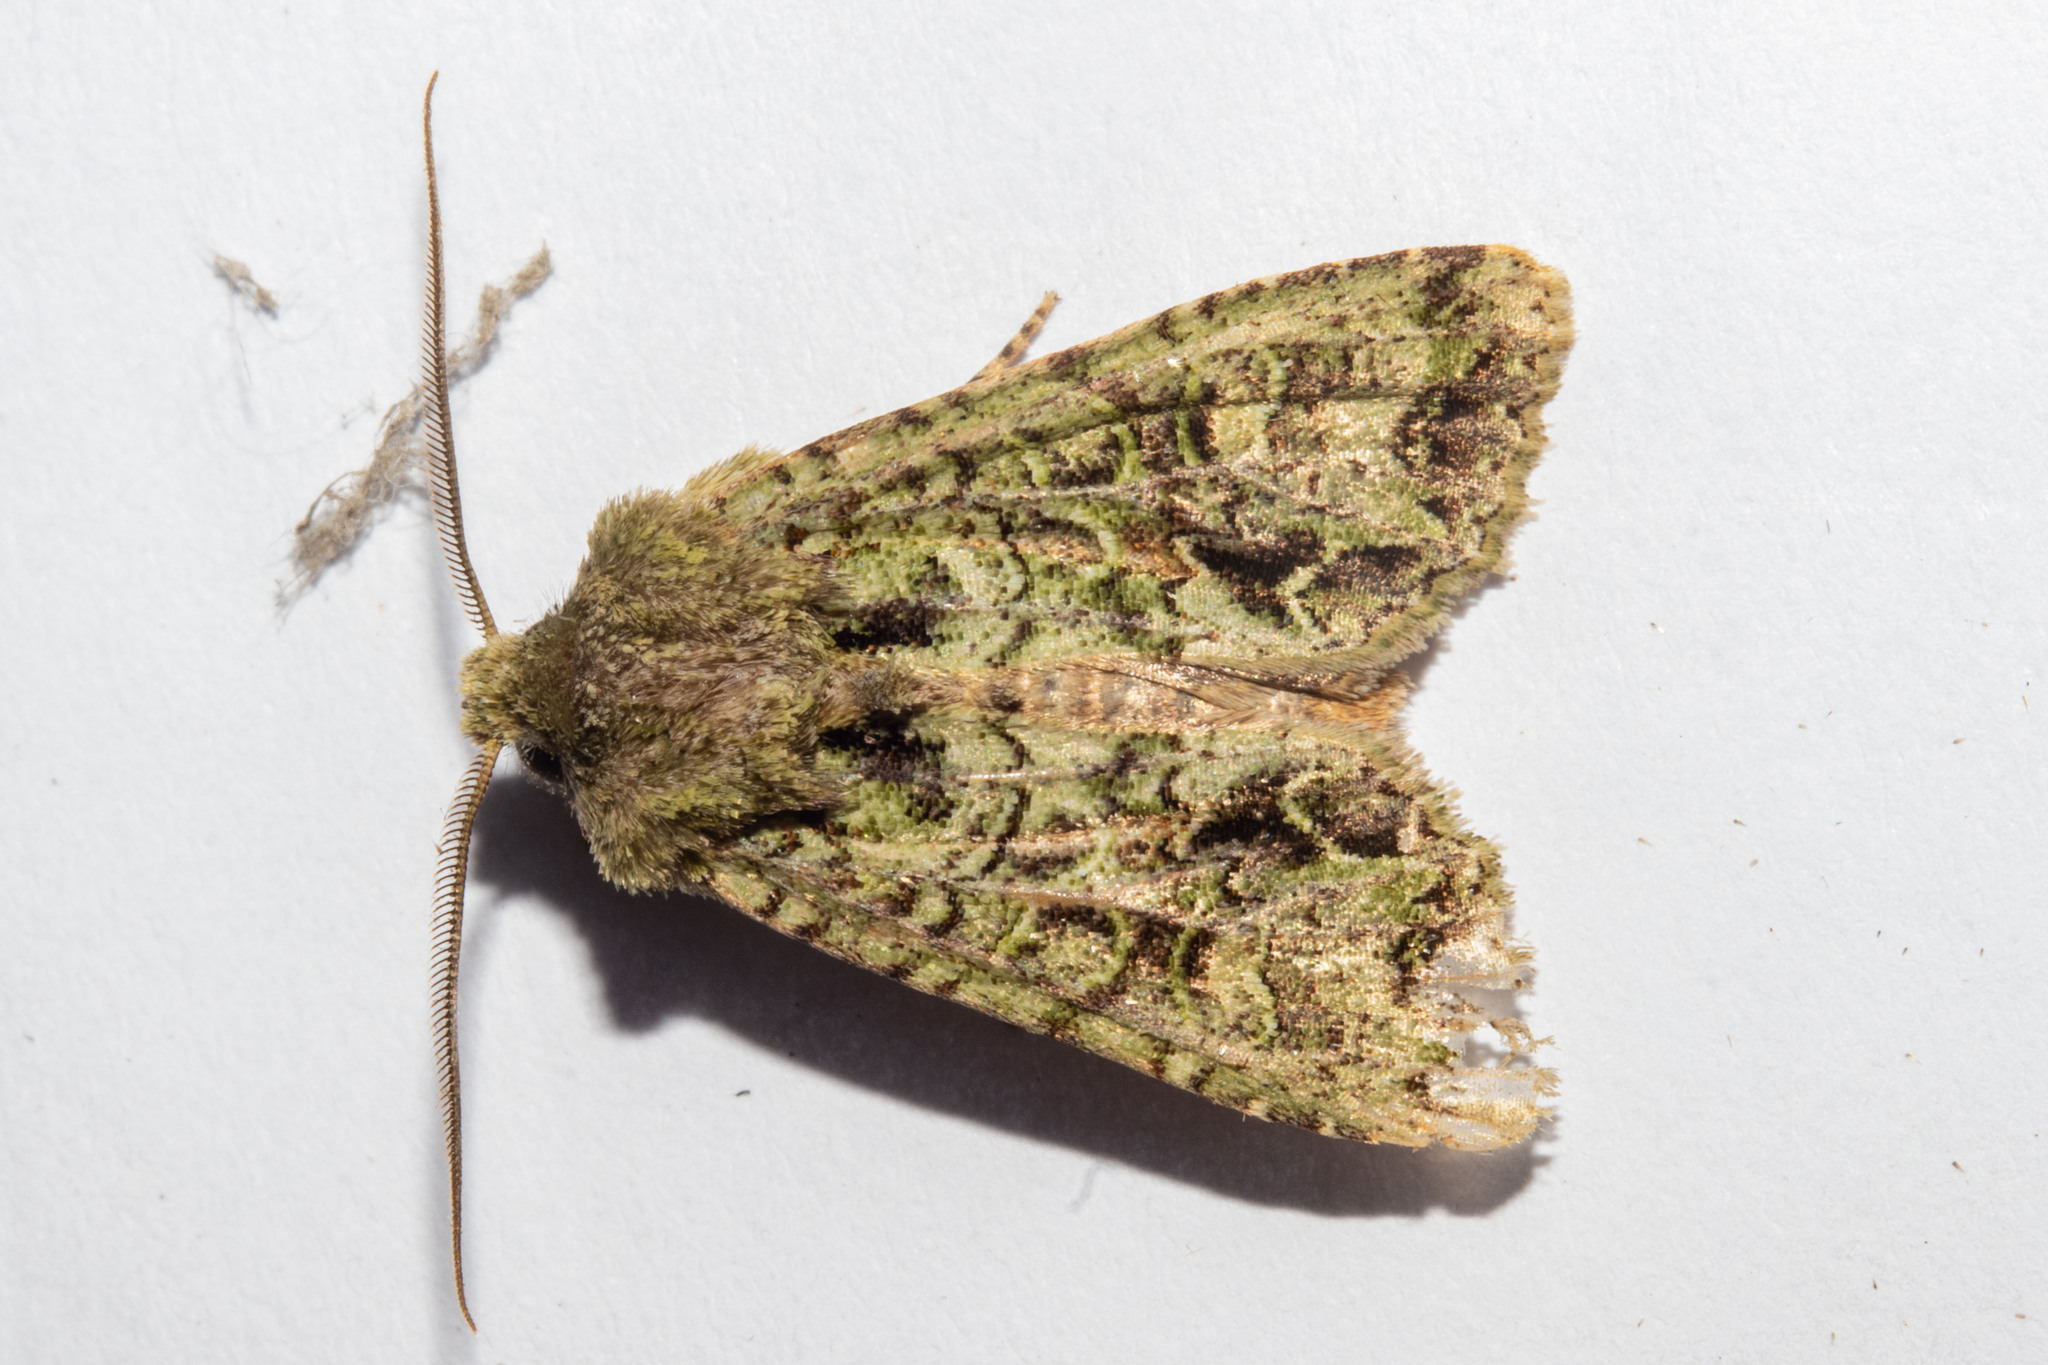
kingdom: Animalia
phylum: Arthropoda
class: Insecta
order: Lepidoptera
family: Noctuidae
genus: Ichneutica
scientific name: Ichneutica
